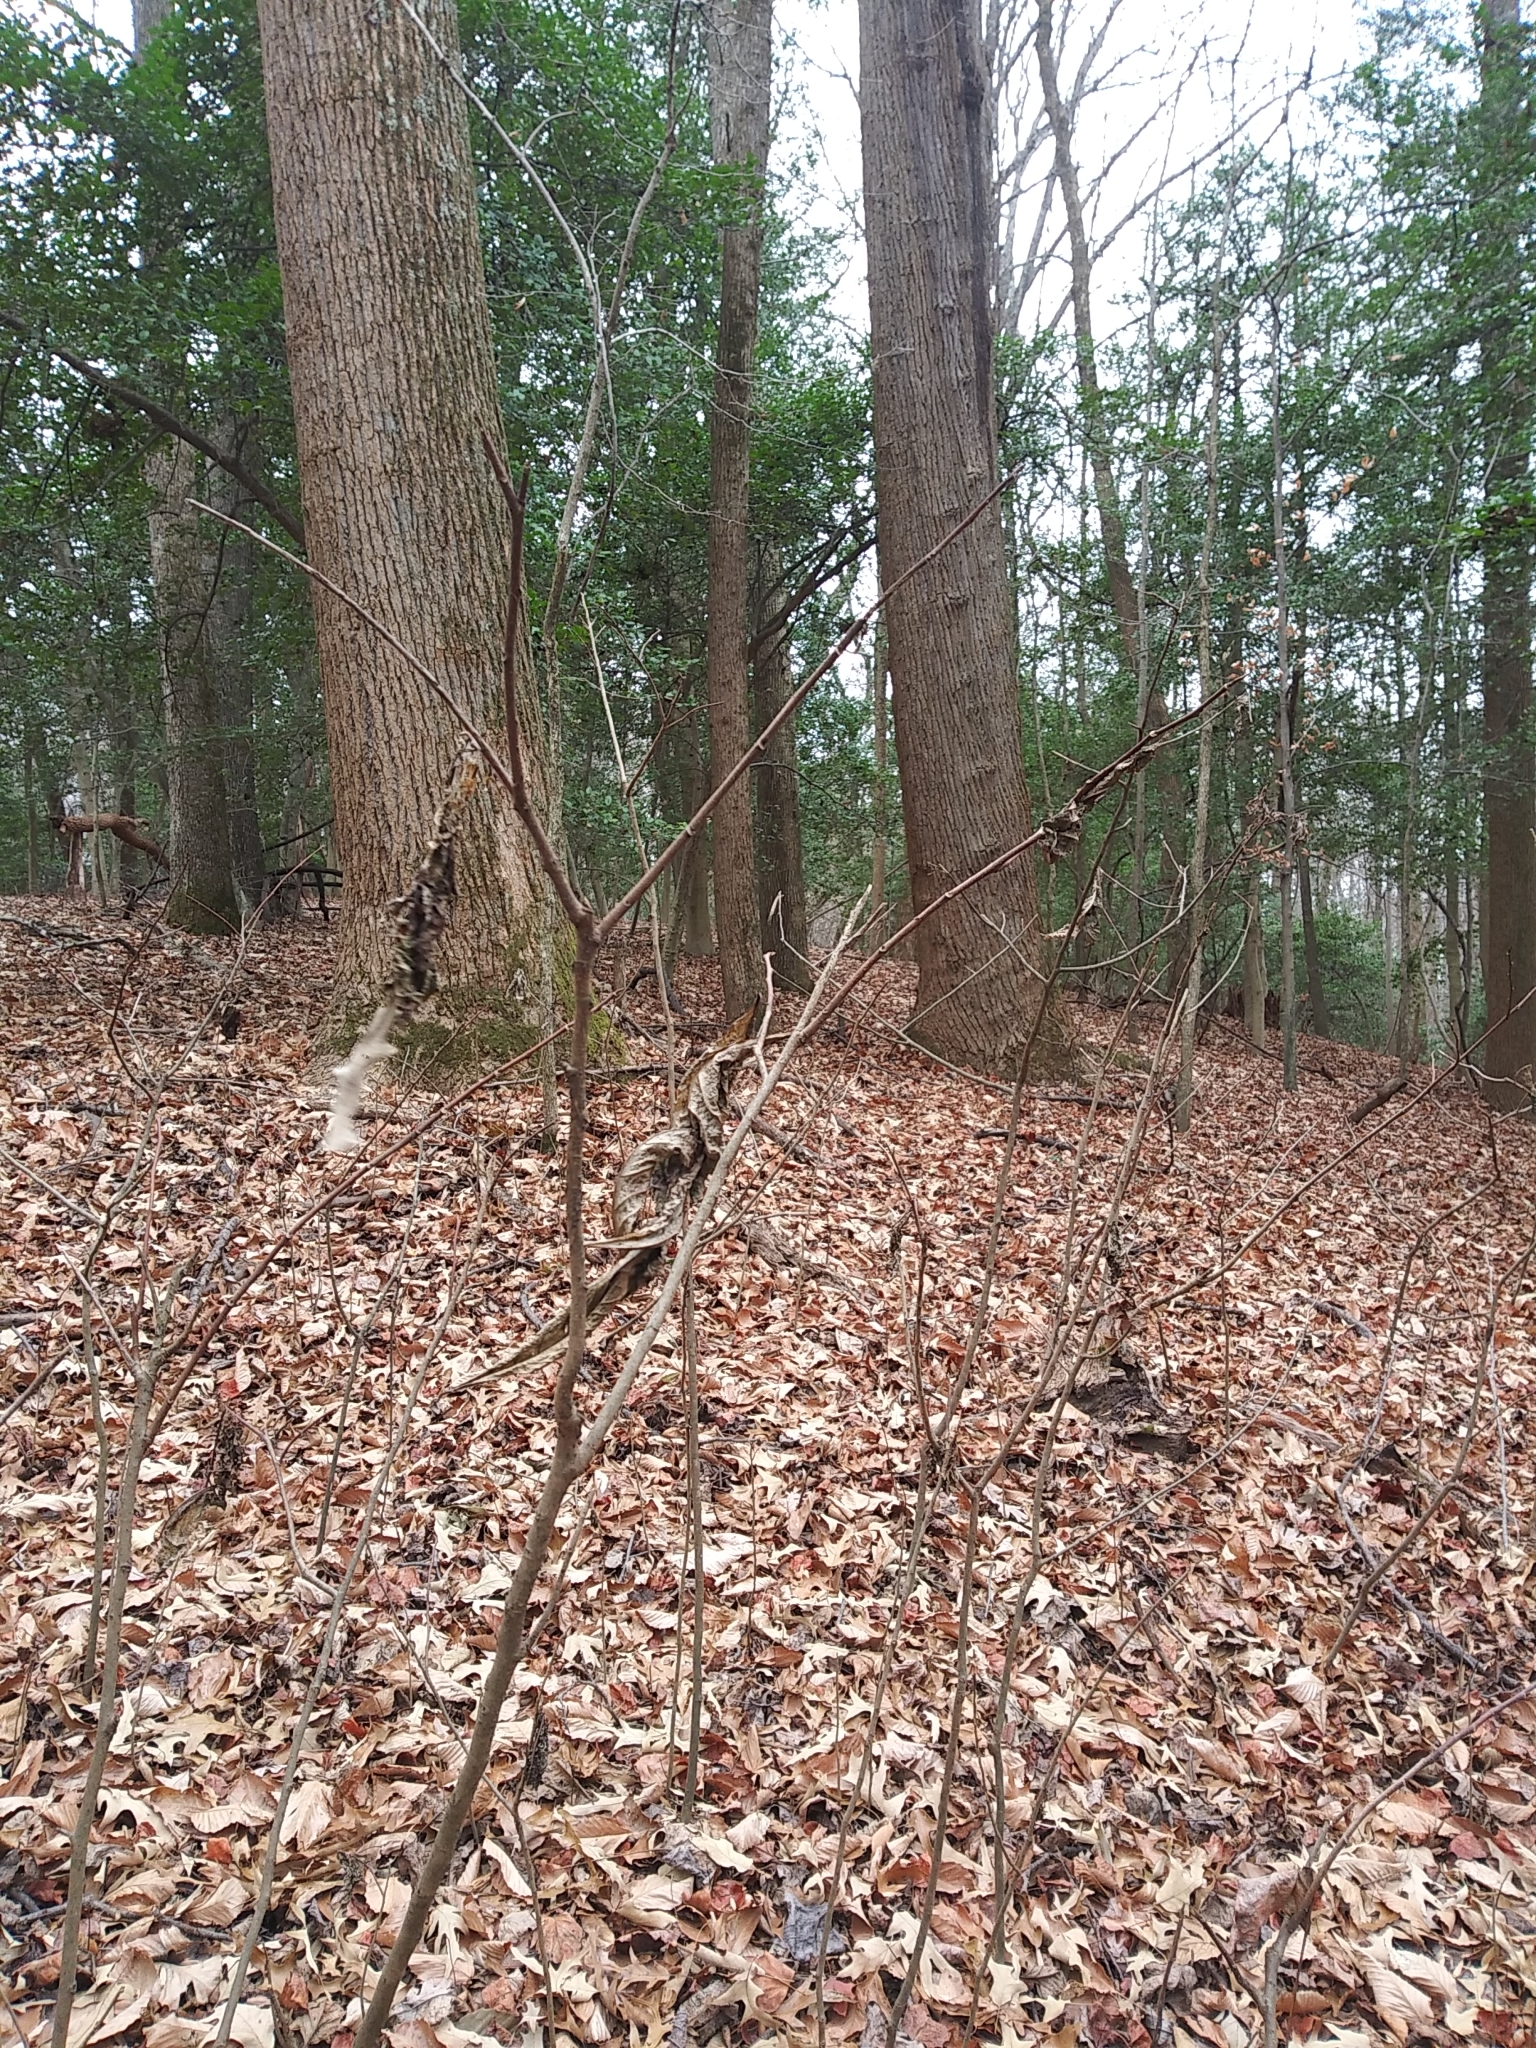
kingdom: Plantae
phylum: Tracheophyta
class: Magnoliopsida
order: Magnoliales
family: Annonaceae
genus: Asimina
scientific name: Asimina triloba
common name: Dog-banana
